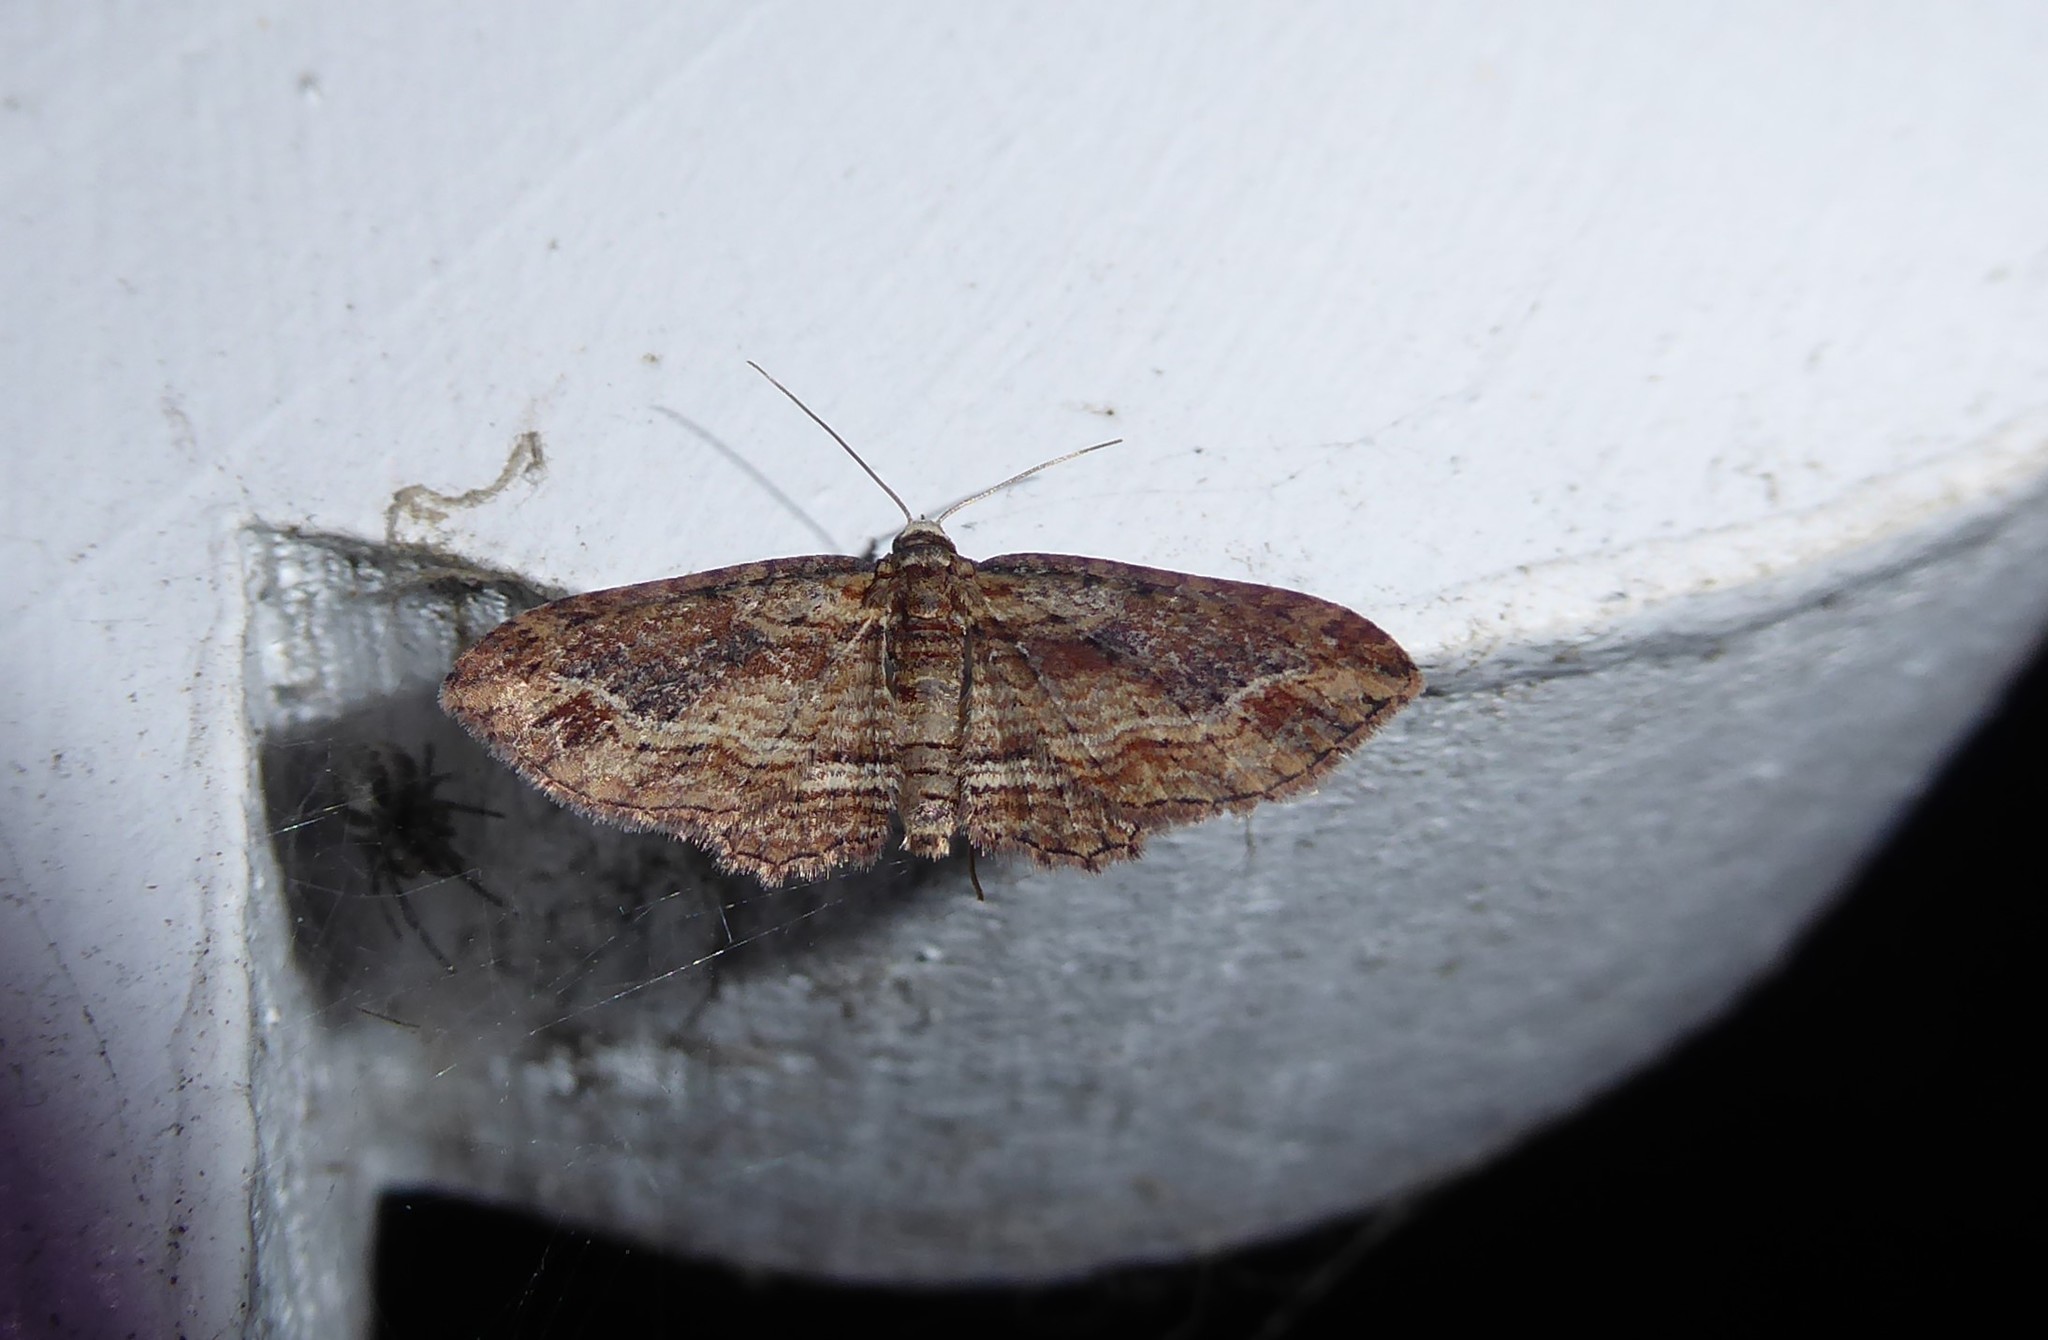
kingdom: Animalia
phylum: Arthropoda
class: Insecta
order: Lepidoptera
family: Geometridae
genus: Chloroclystis
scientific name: Chloroclystis filata
